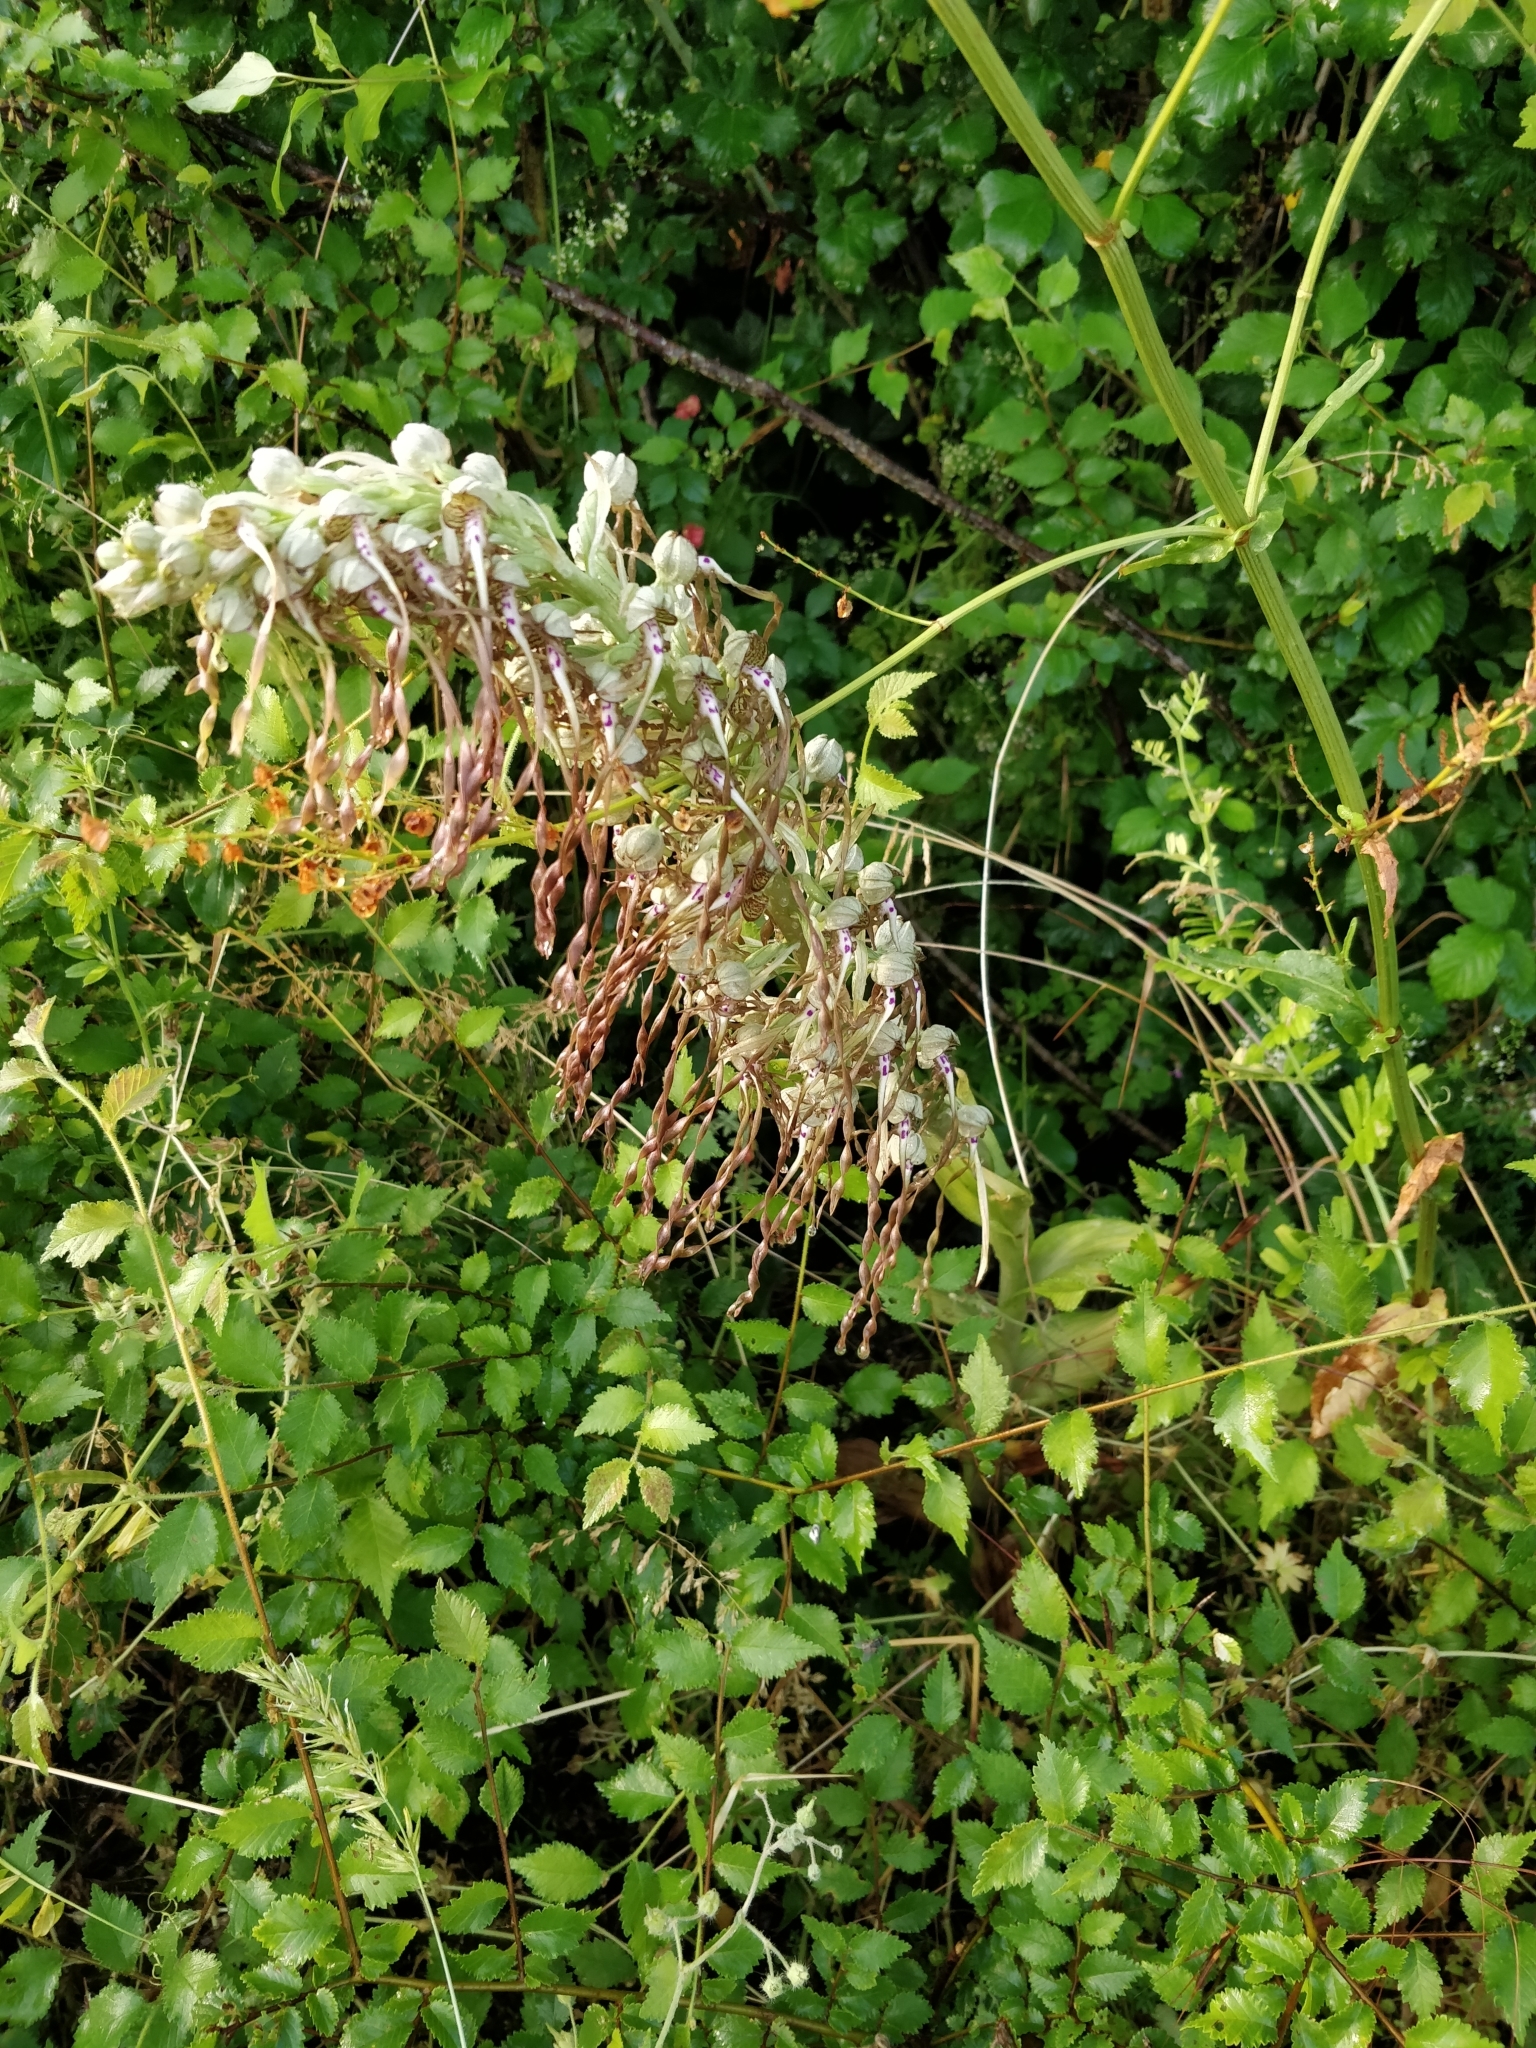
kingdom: Plantae
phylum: Tracheophyta
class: Liliopsida
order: Asparagales
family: Orchidaceae
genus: Himantoglossum
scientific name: Himantoglossum hircinum
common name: Lizard orchid
